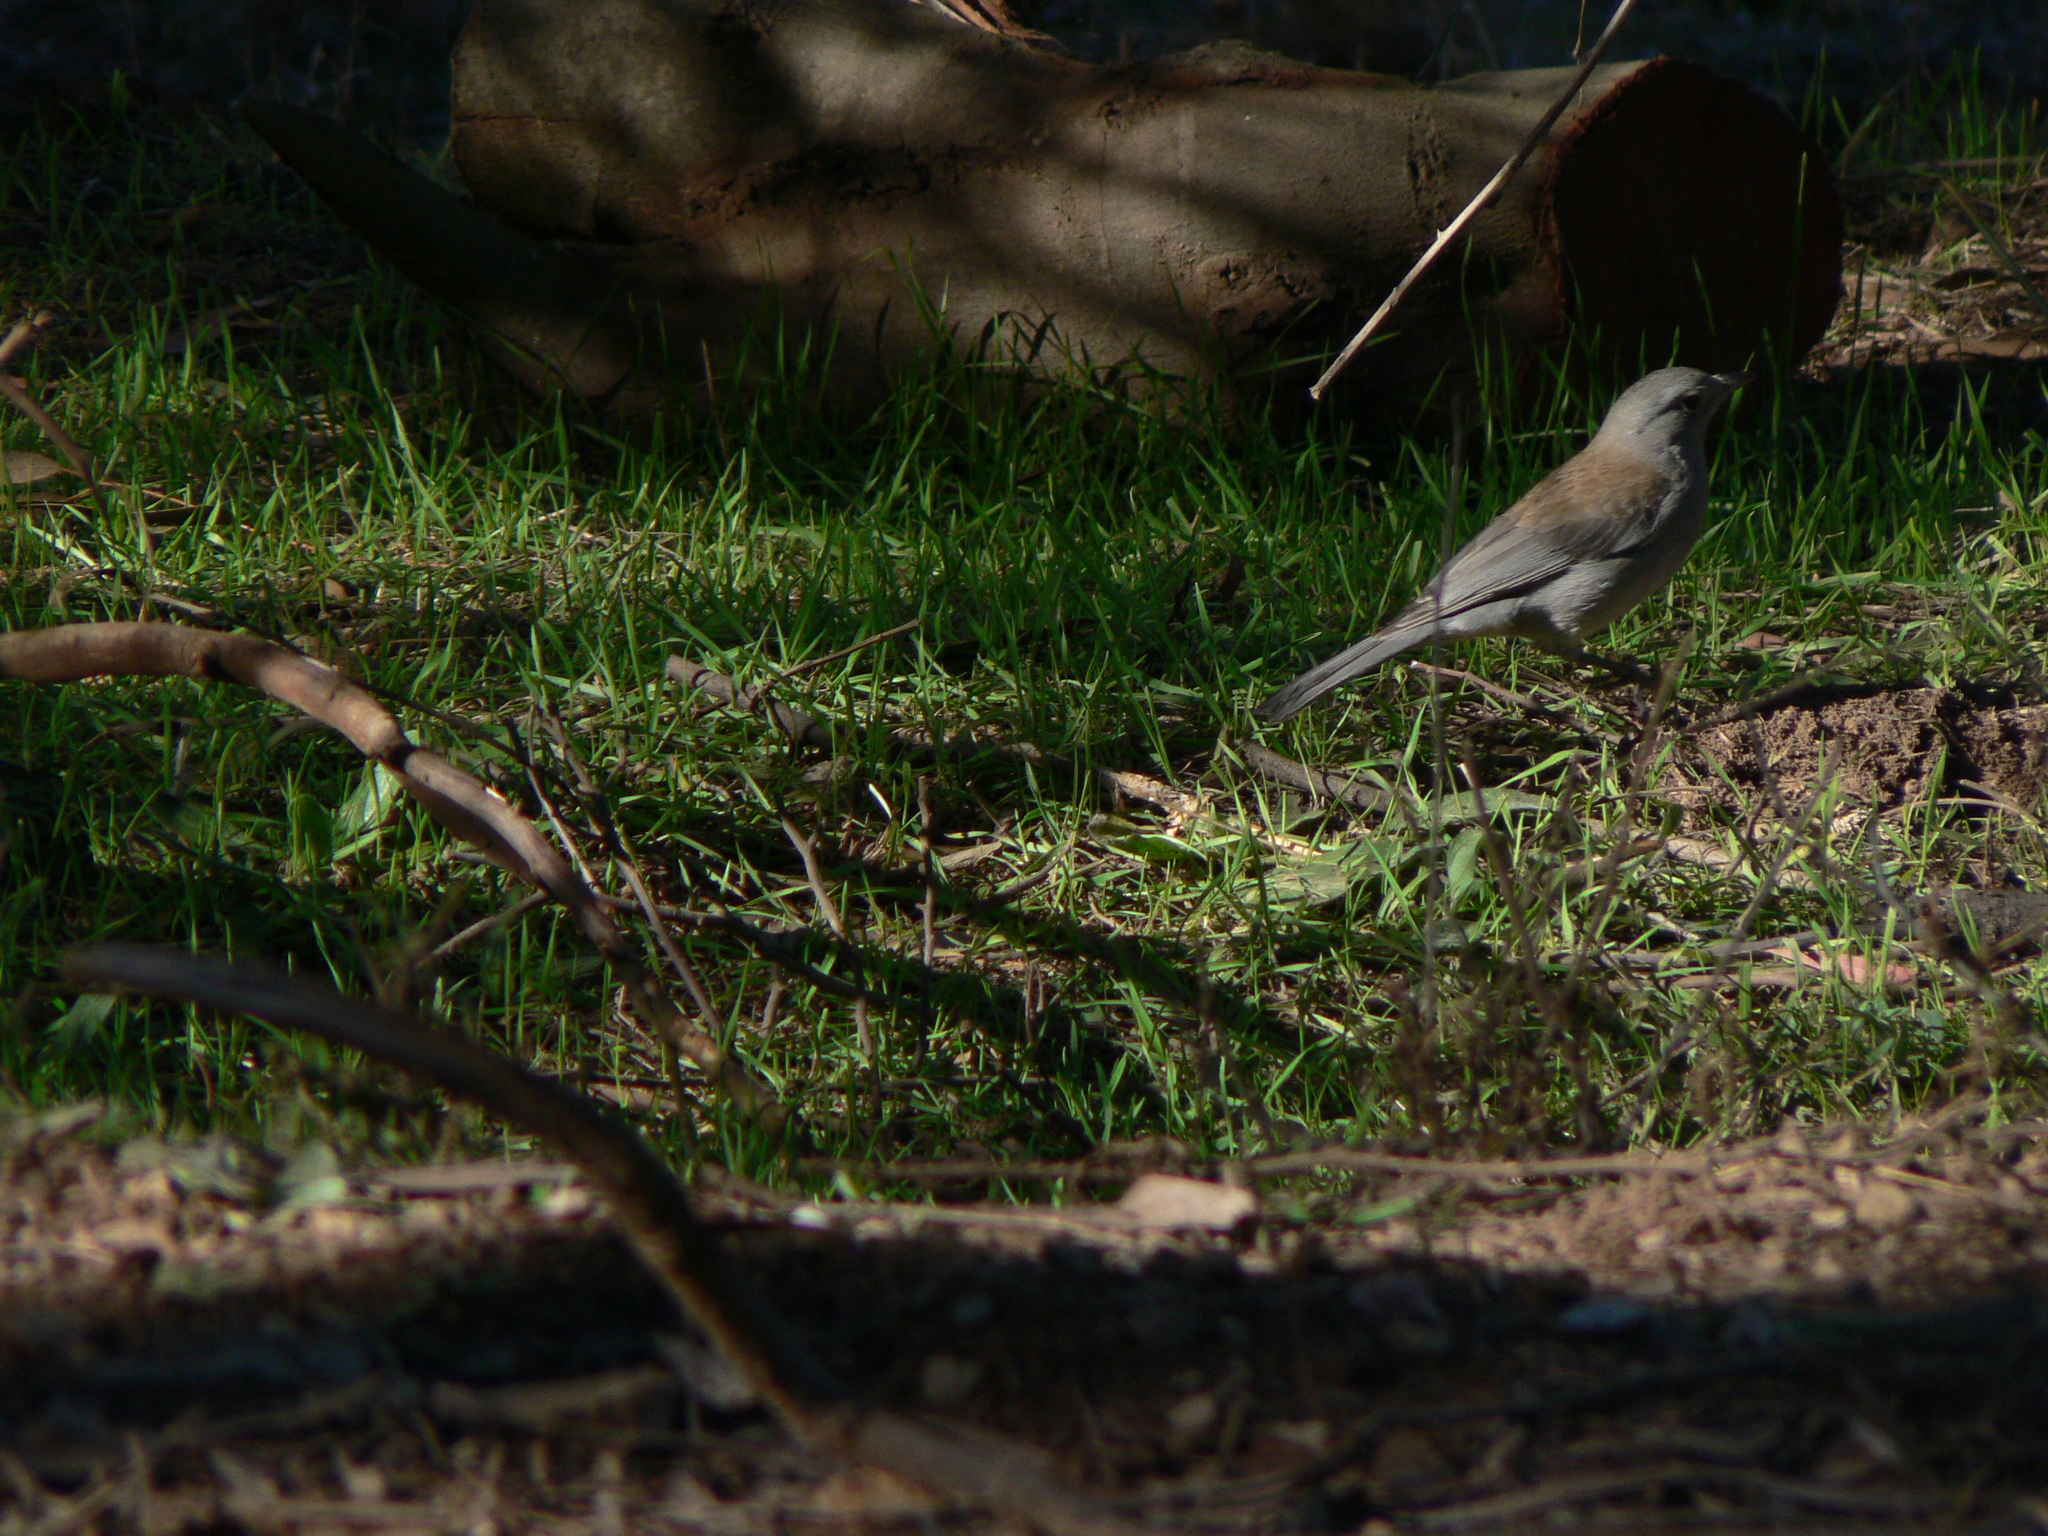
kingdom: Animalia
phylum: Chordata
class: Aves
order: Passeriformes
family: Pachycephalidae
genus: Colluricincla
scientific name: Colluricincla harmonica
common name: Grey shrikethrush
